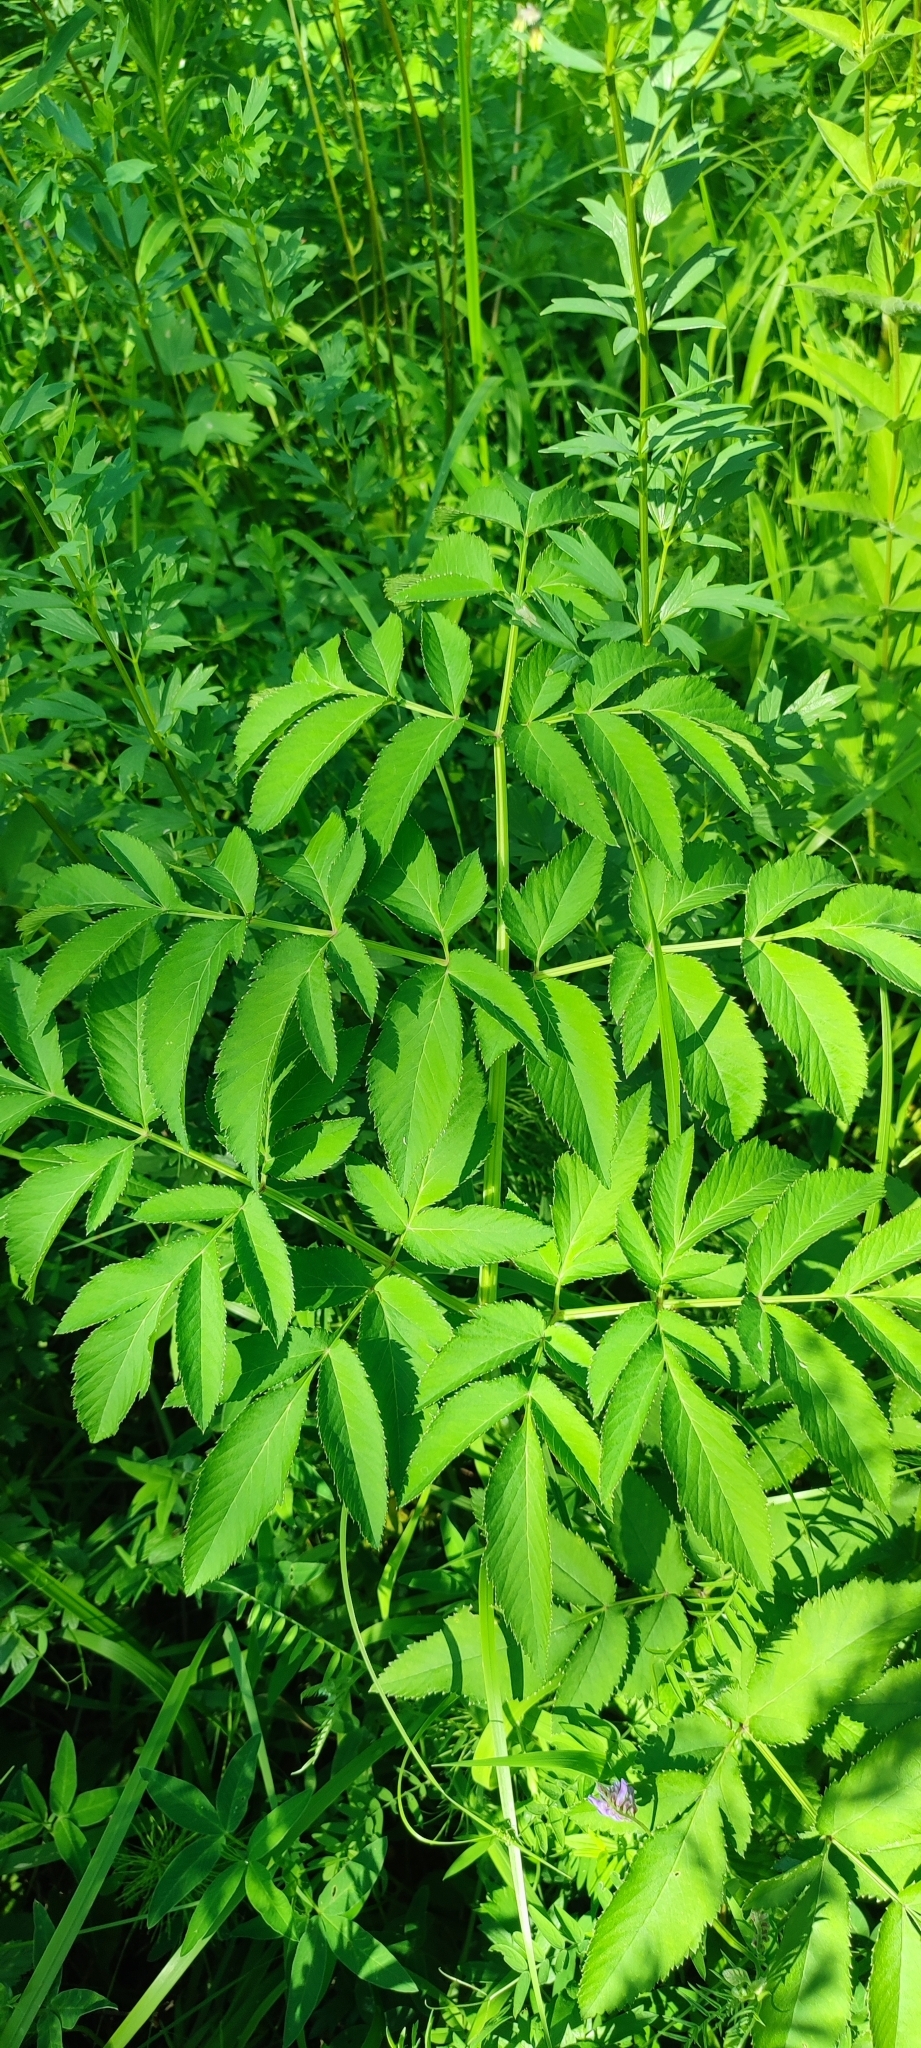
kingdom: Plantae
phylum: Tracheophyta
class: Magnoliopsida
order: Apiales
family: Apiaceae
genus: Angelica
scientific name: Angelica sylvestris
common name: Wild angelica
